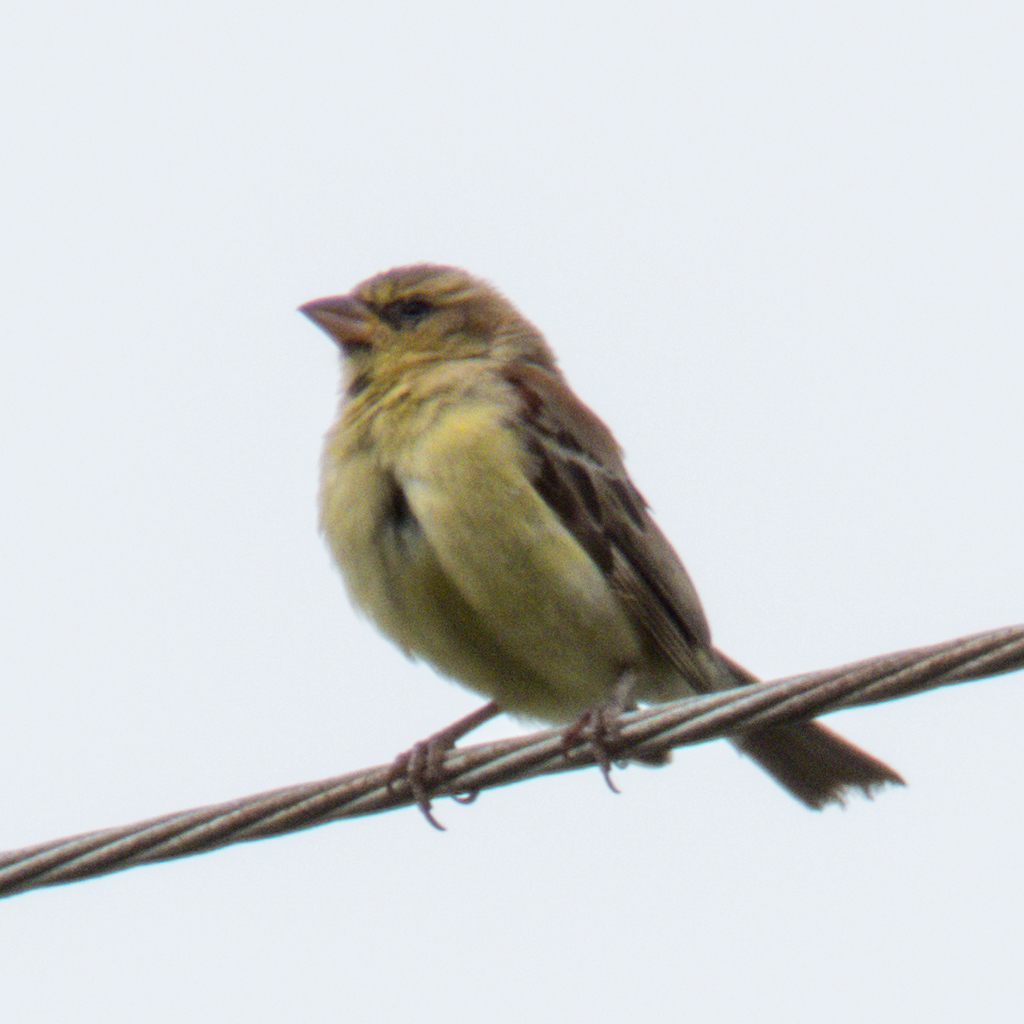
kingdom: Animalia
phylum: Chordata
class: Aves
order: Passeriformes
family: Passeridae
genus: Passer
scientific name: Passer flaveolus
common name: Plain-backed sparrow
